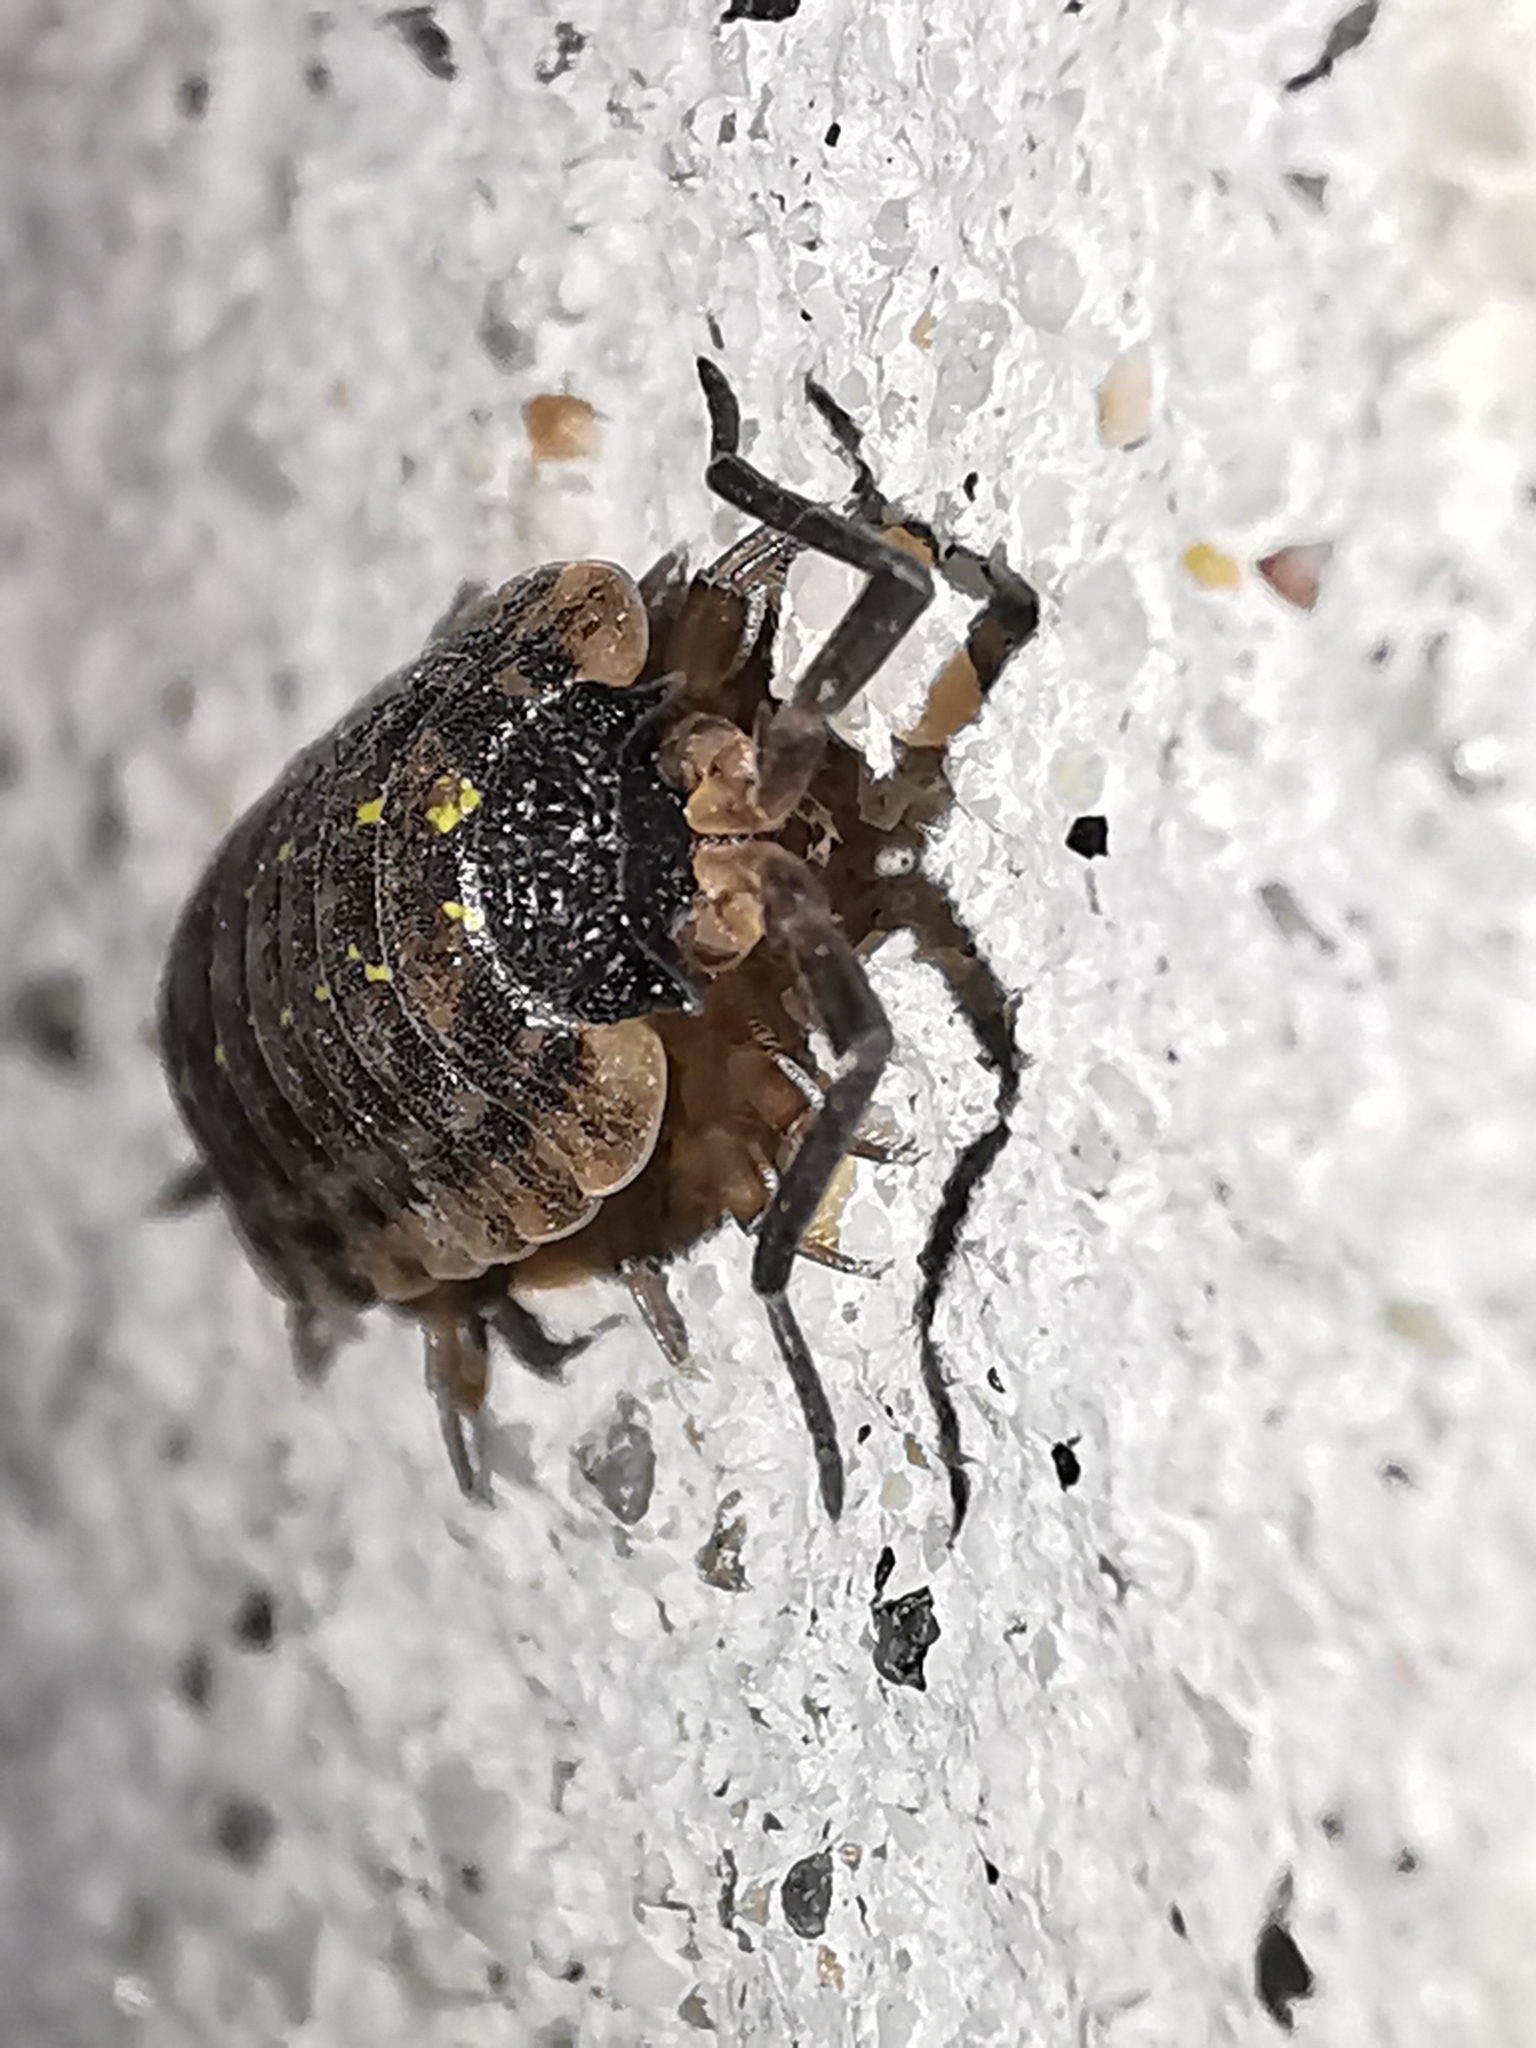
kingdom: Animalia
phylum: Arthropoda
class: Malacostraca
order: Isopoda
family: Porcellionidae
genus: Porcellio
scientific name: Porcellio spinicornis
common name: Painted woodlouse
